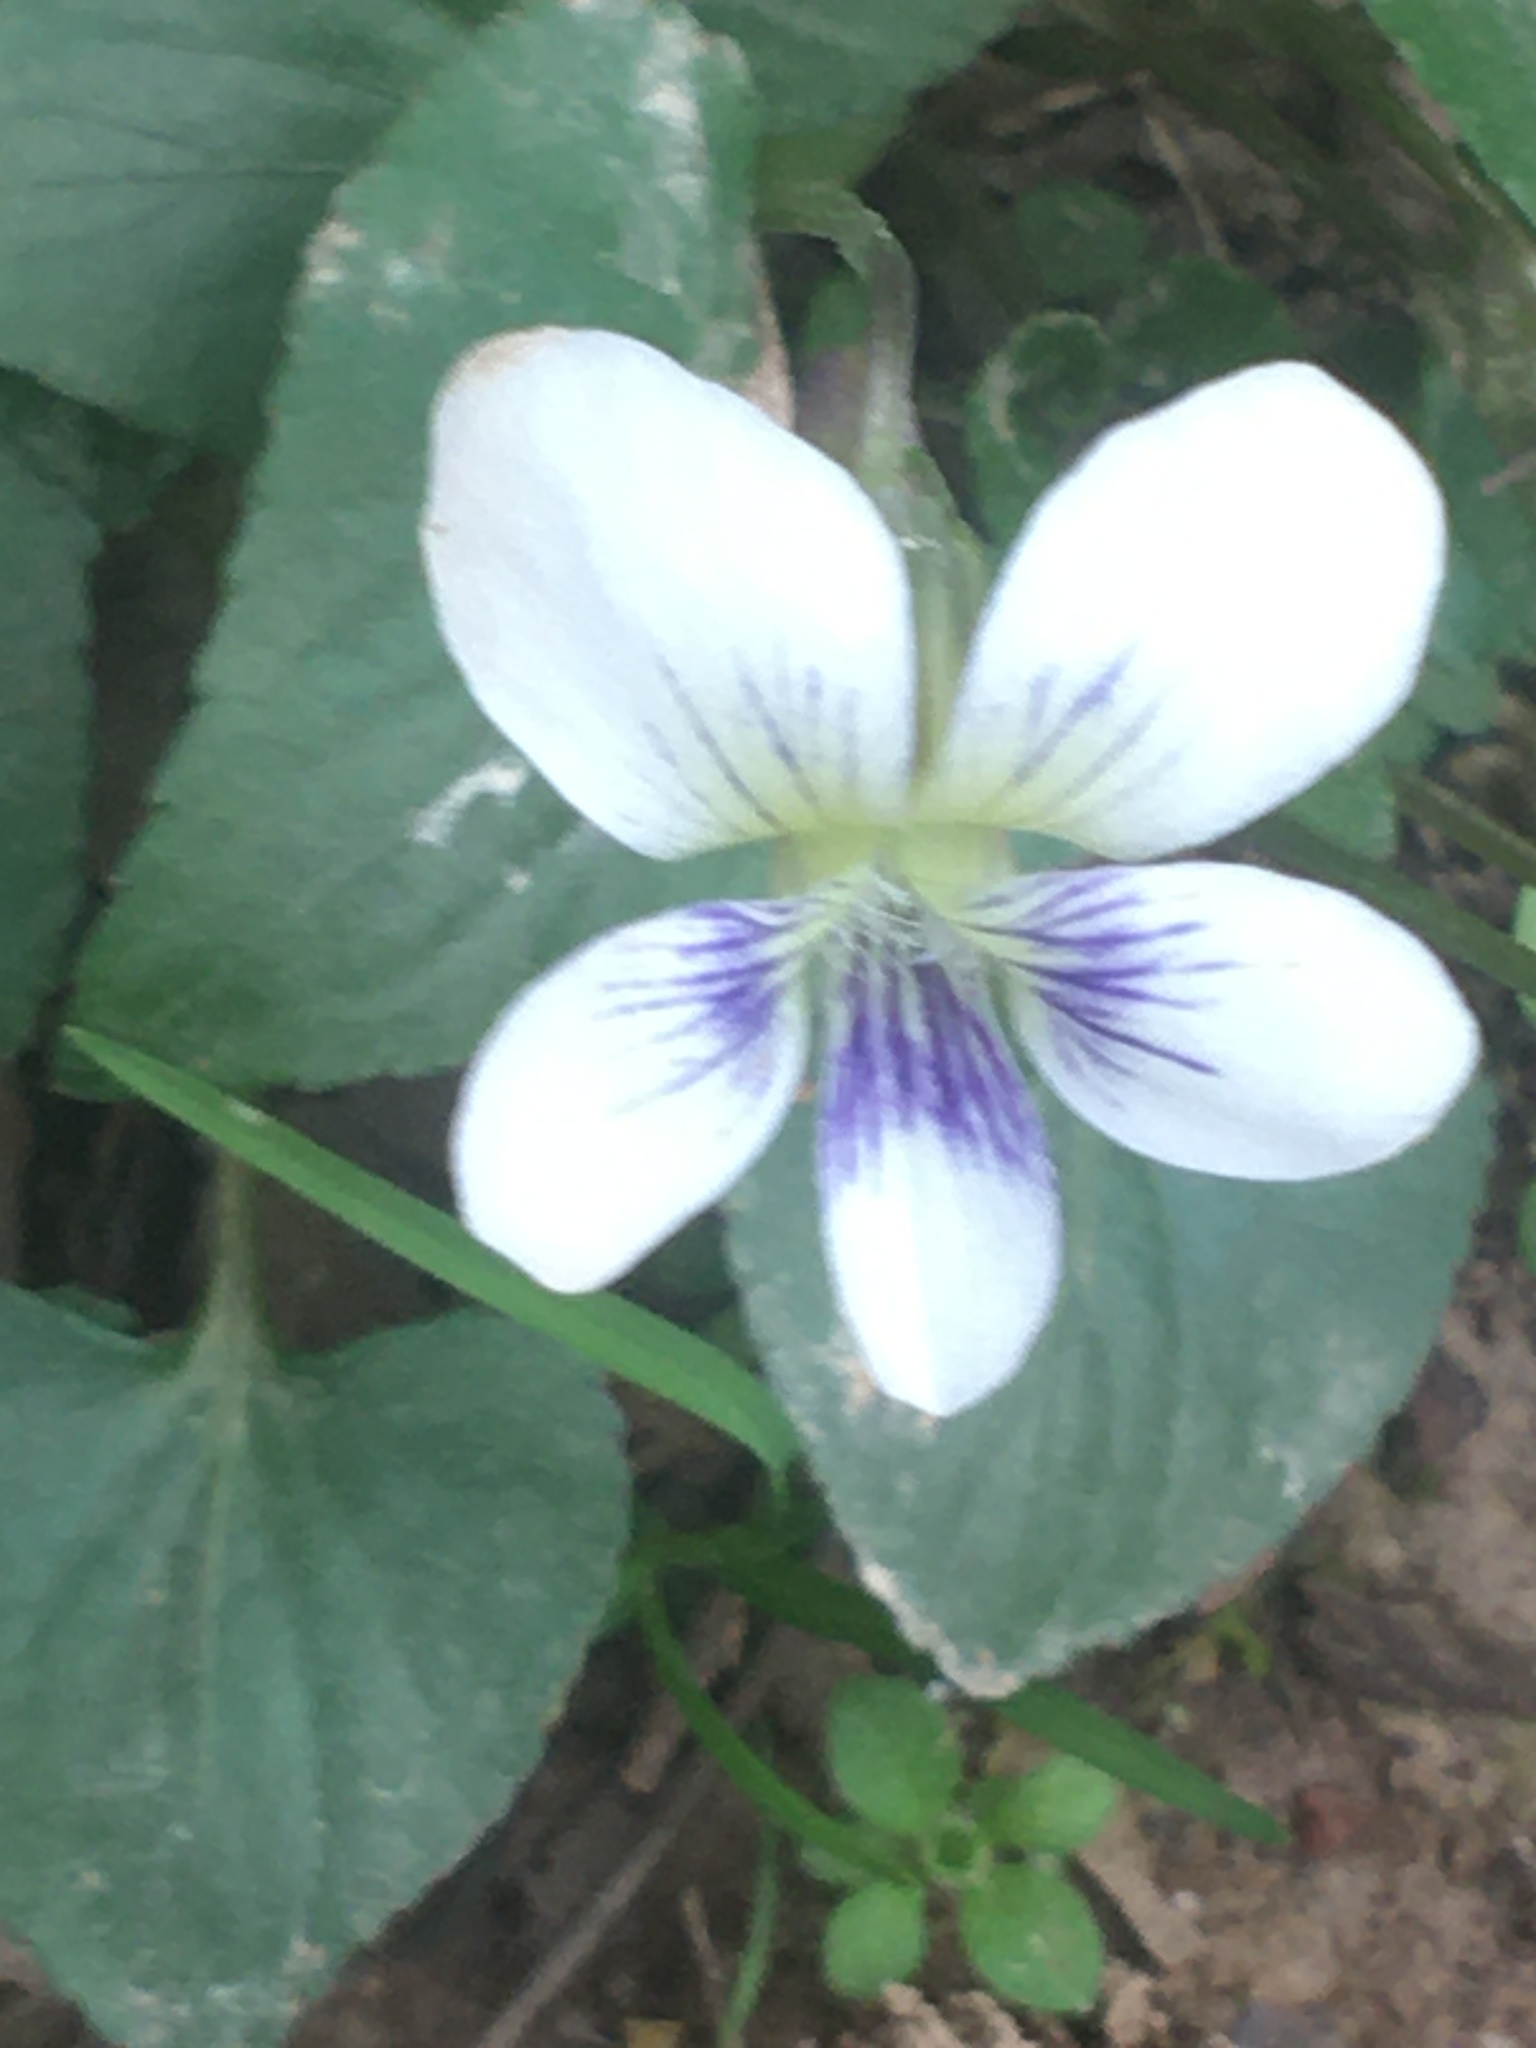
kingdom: Plantae
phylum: Tracheophyta
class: Magnoliopsida
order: Malpighiales
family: Violaceae
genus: Viola
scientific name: Viola sororia
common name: Dooryard violet
